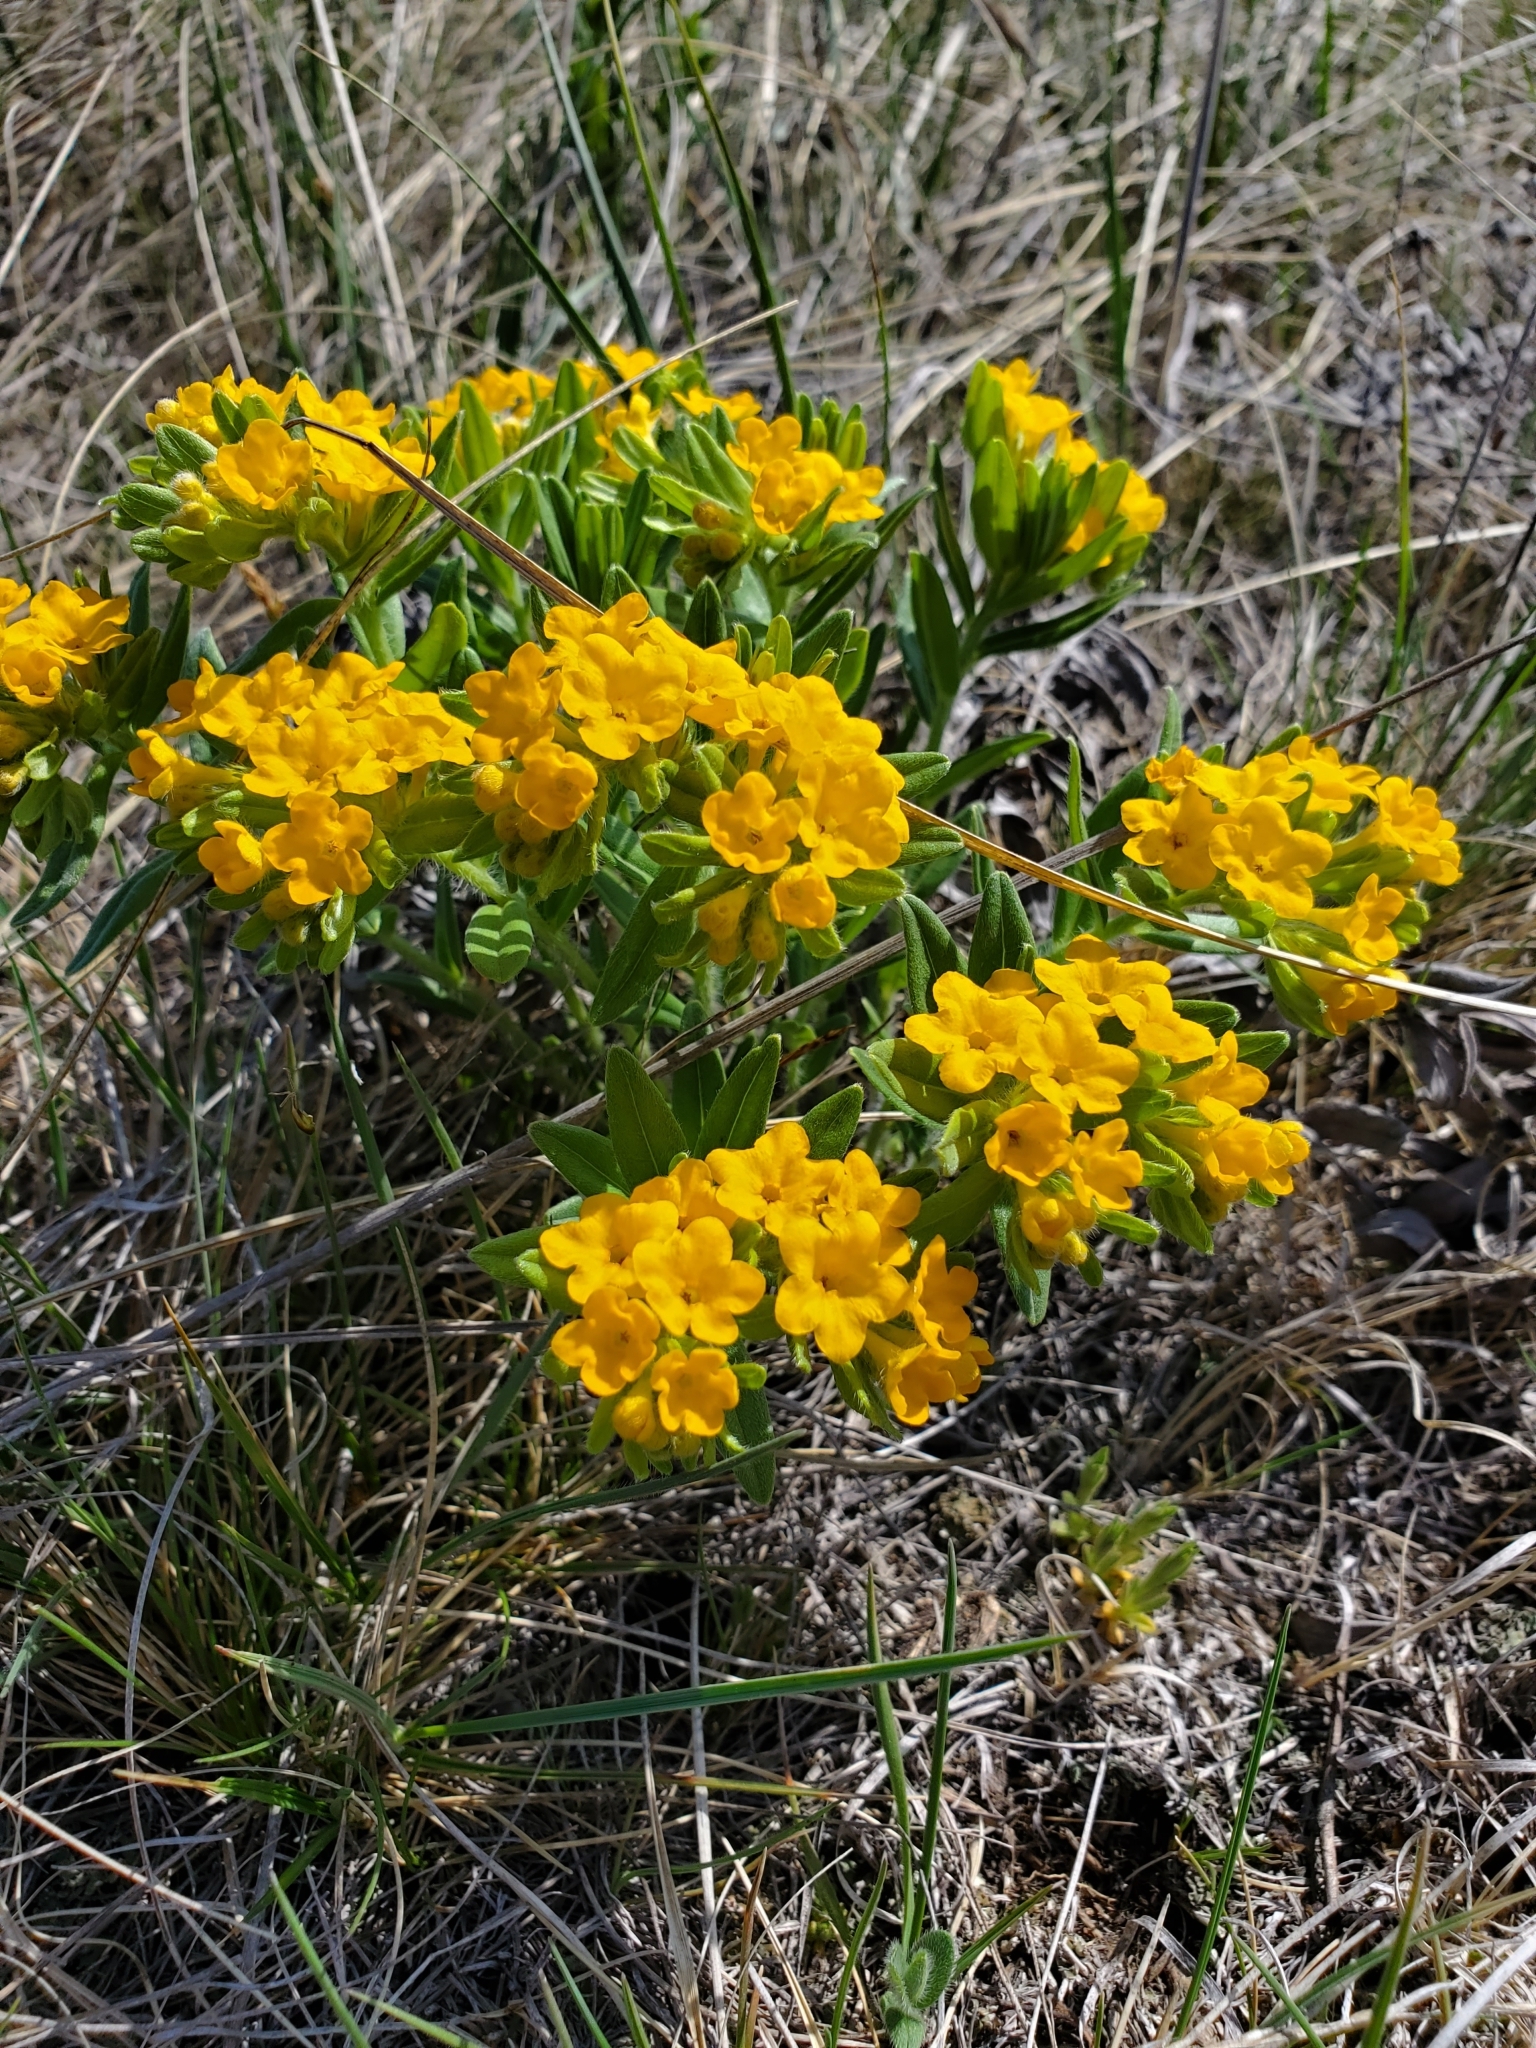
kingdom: Plantae
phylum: Tracheophyta
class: Magnoliopsida
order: Boraginales
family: Boraginaceae
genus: Lithospermum
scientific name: Lithospermum canescens
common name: Hoary puccoon
